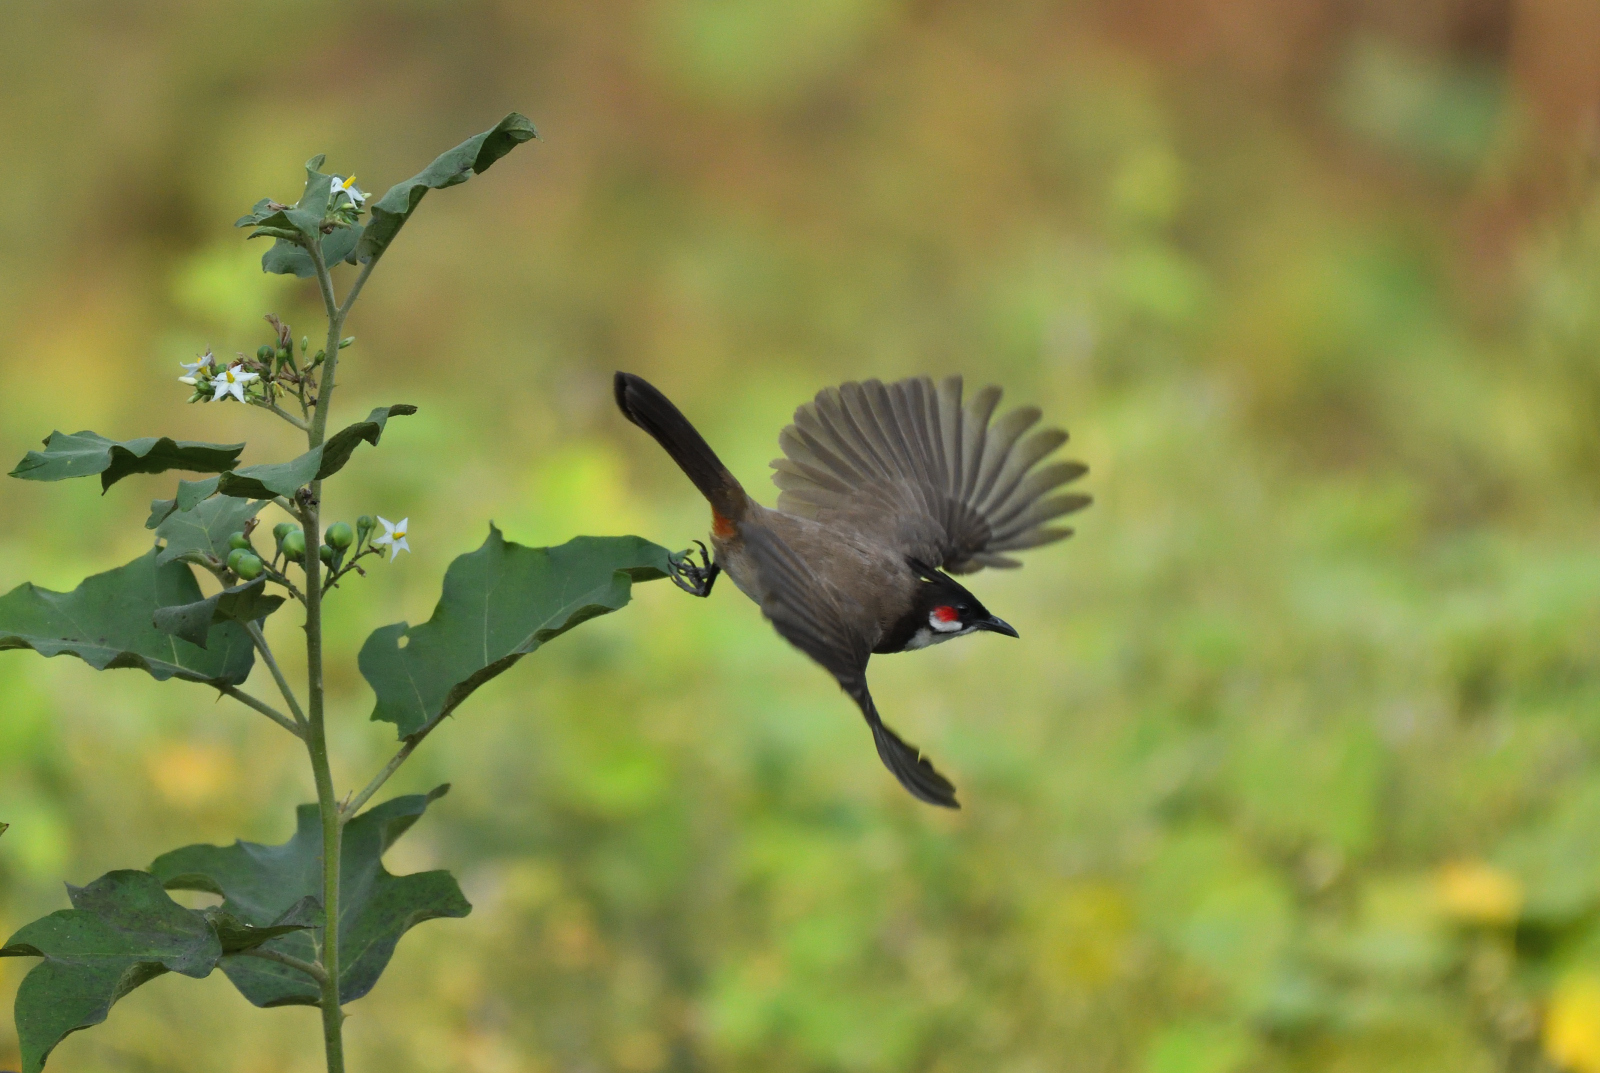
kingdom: Animalia
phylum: Chordata
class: Aves
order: Passeriformes
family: Pycnonotidae
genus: Pycnonotus
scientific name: Pycnonotus jocosus
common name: Red-whiskered bulbul
